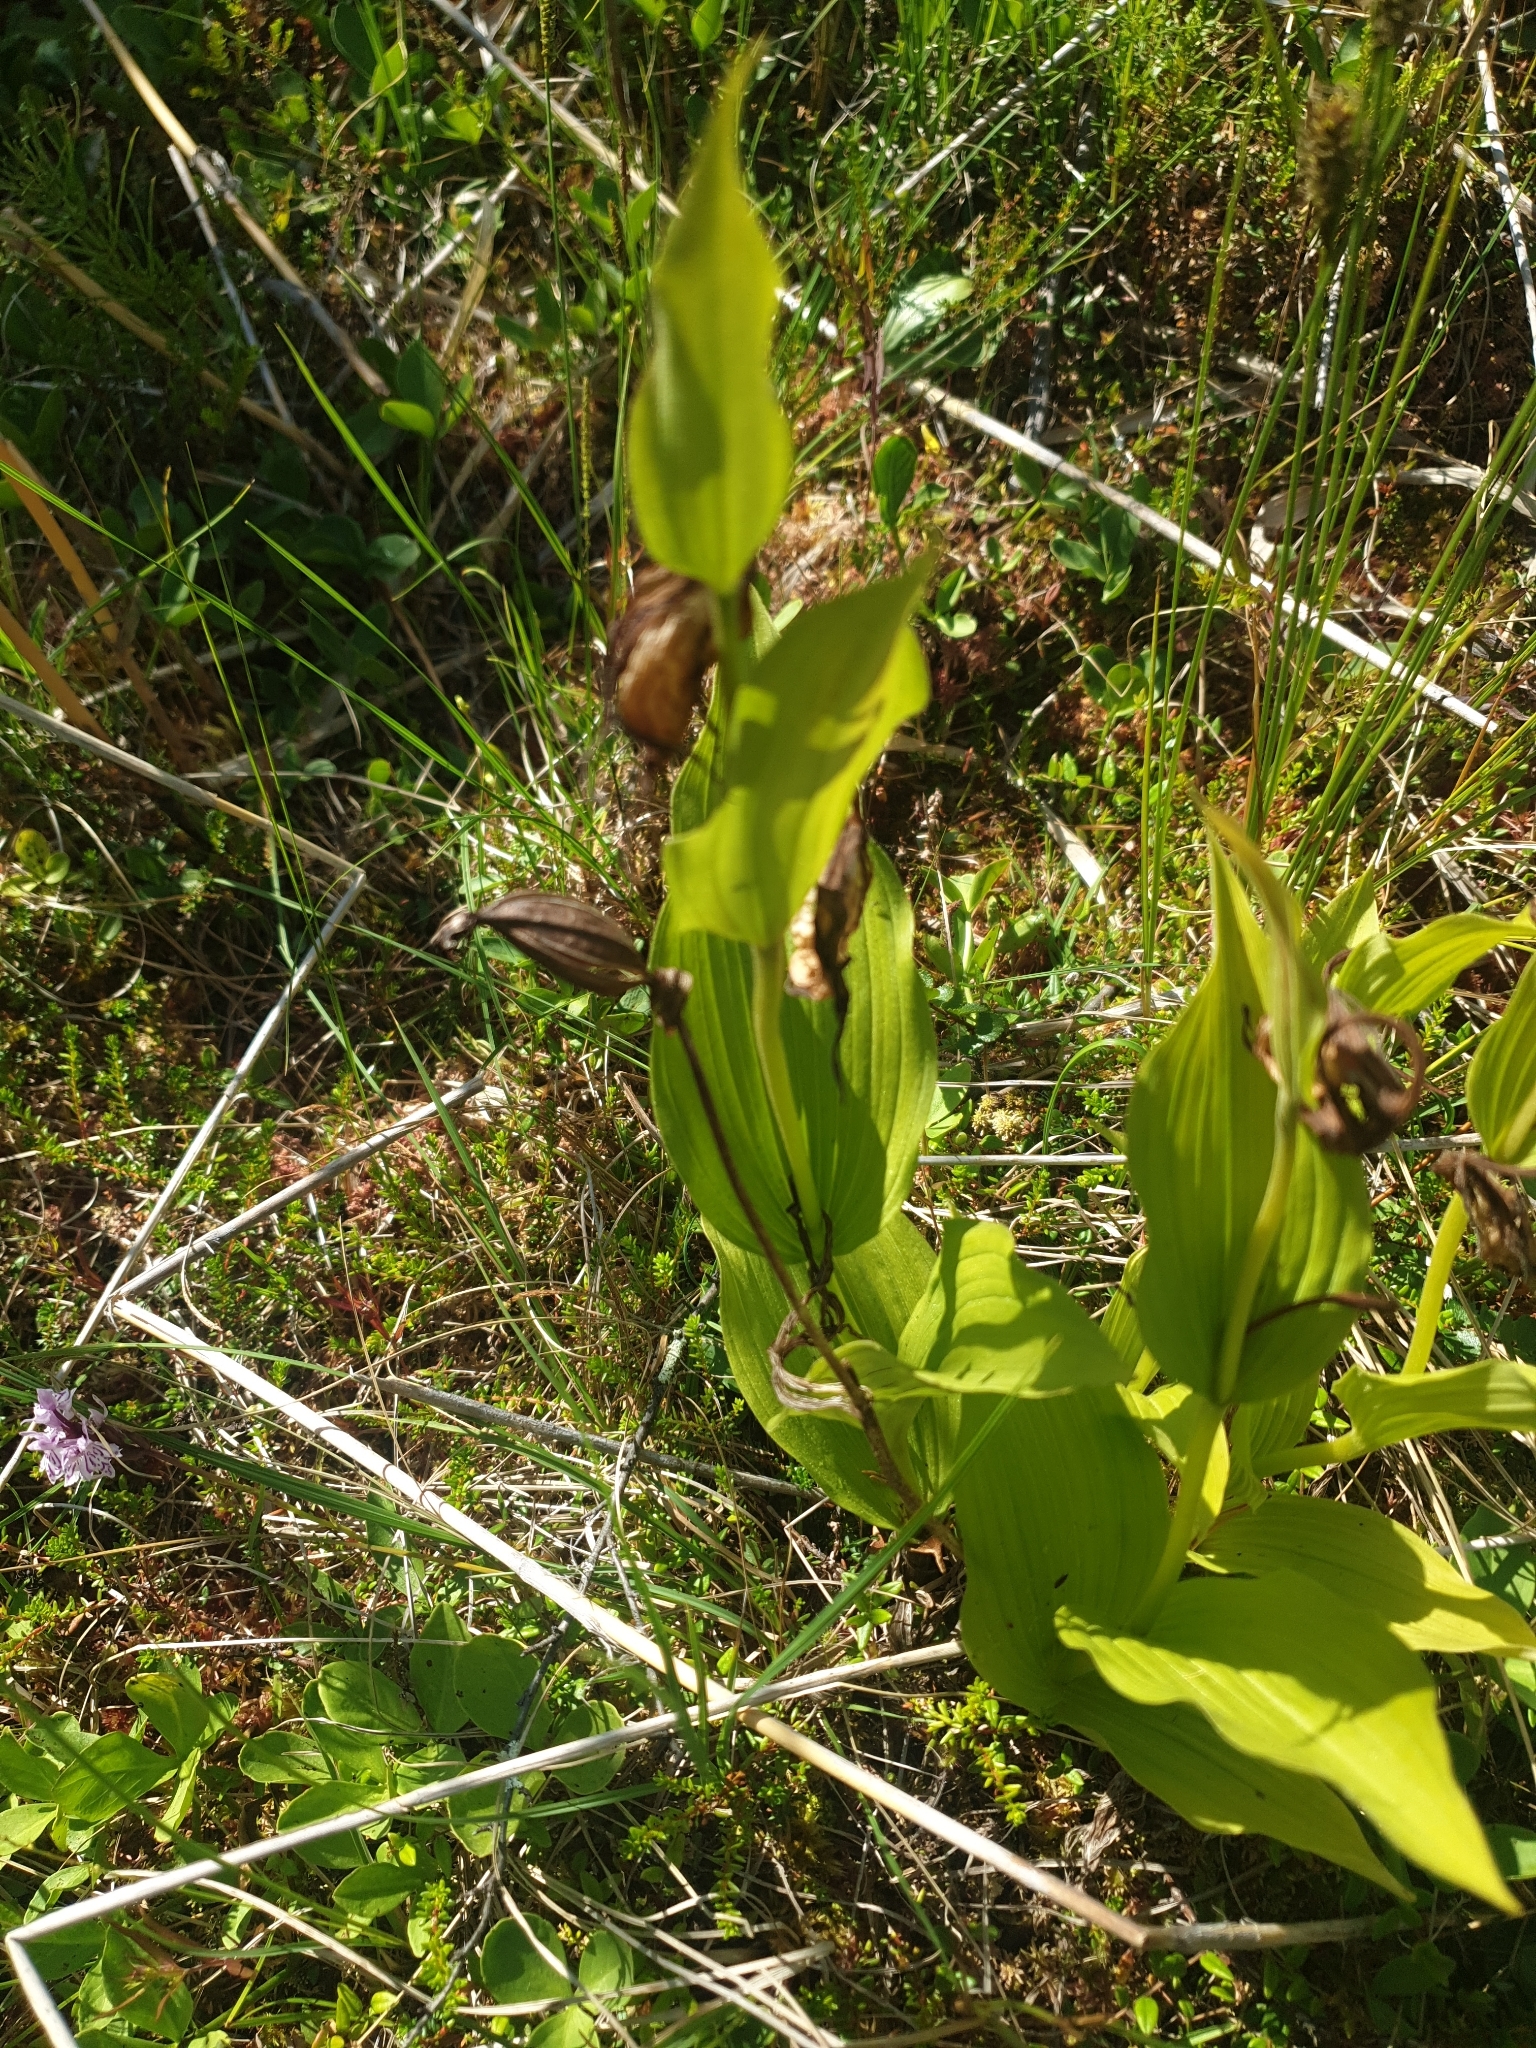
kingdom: Plantae
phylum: Tracheophyta
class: Liliopsida
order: Asparagales
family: Orchidaceae
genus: Cypripedium
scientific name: Cypripedium calceolus
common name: Lady's-slipper
